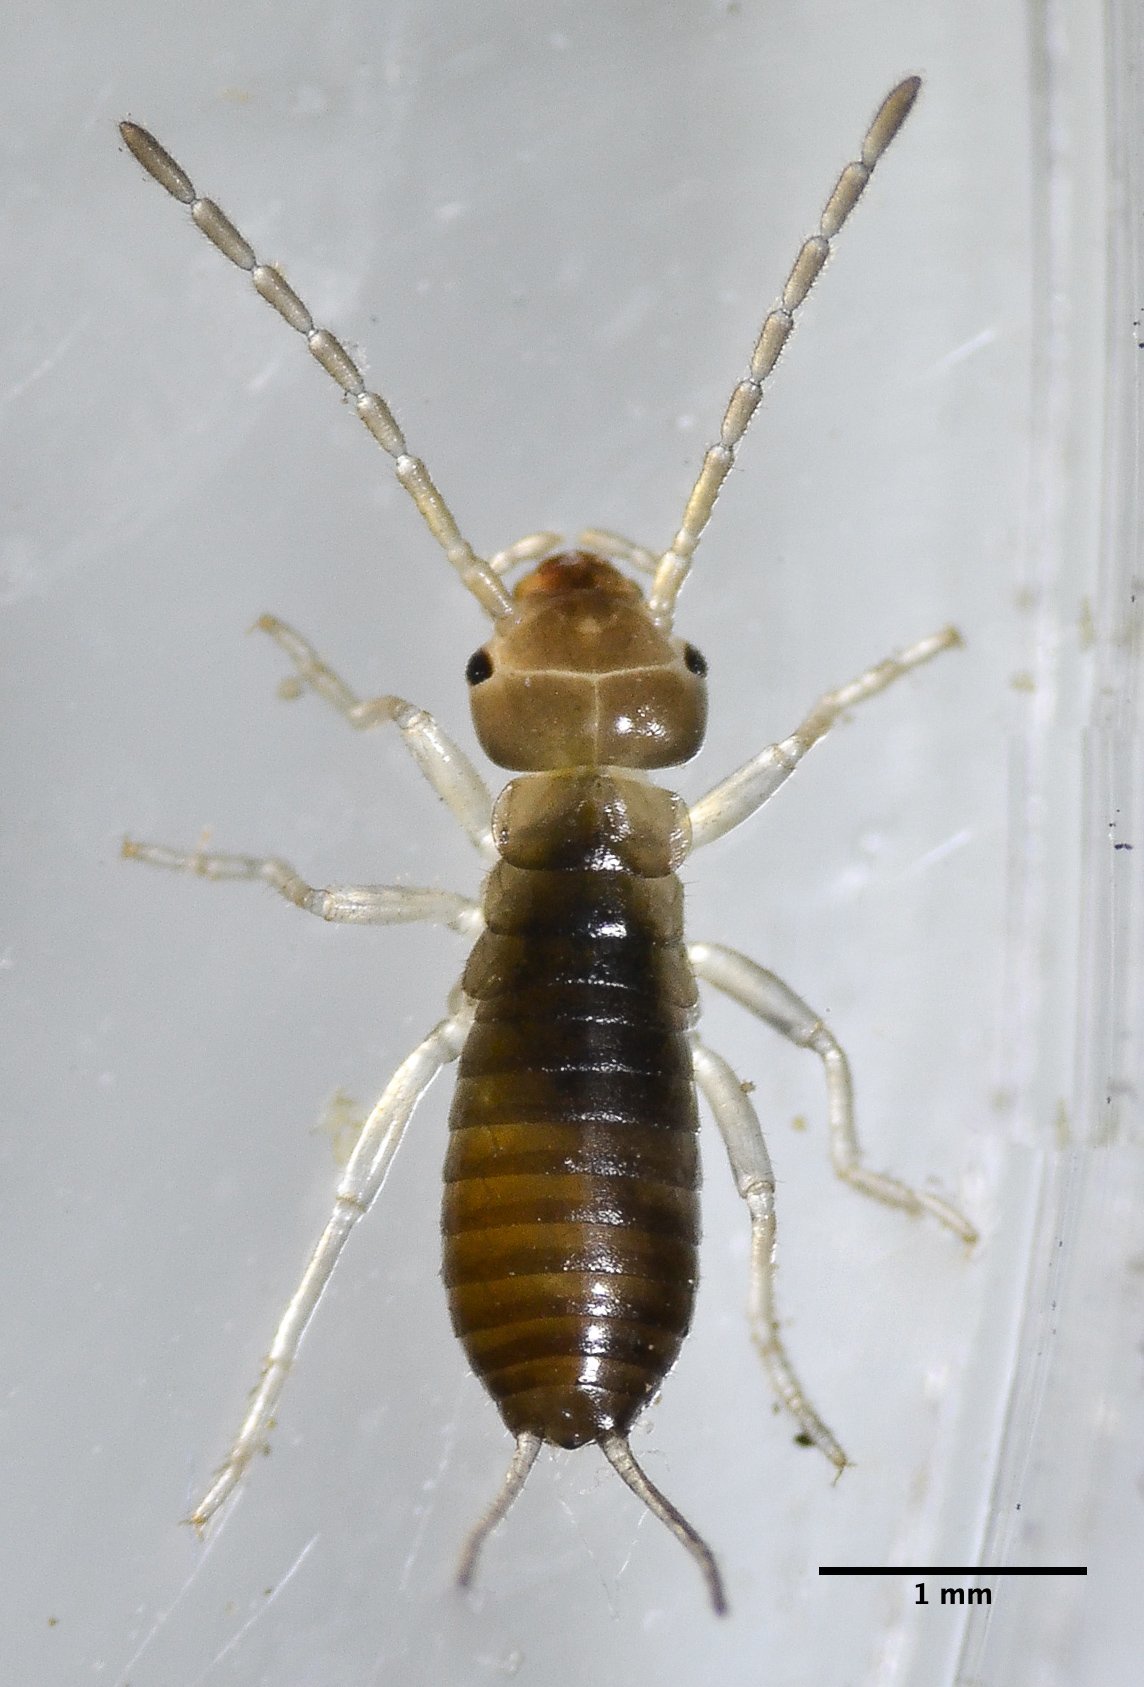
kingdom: Animalia
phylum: Arthropoda
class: Insecta
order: Dermaptera
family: Forficulidae
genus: Forficula
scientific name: Forficula dentata
